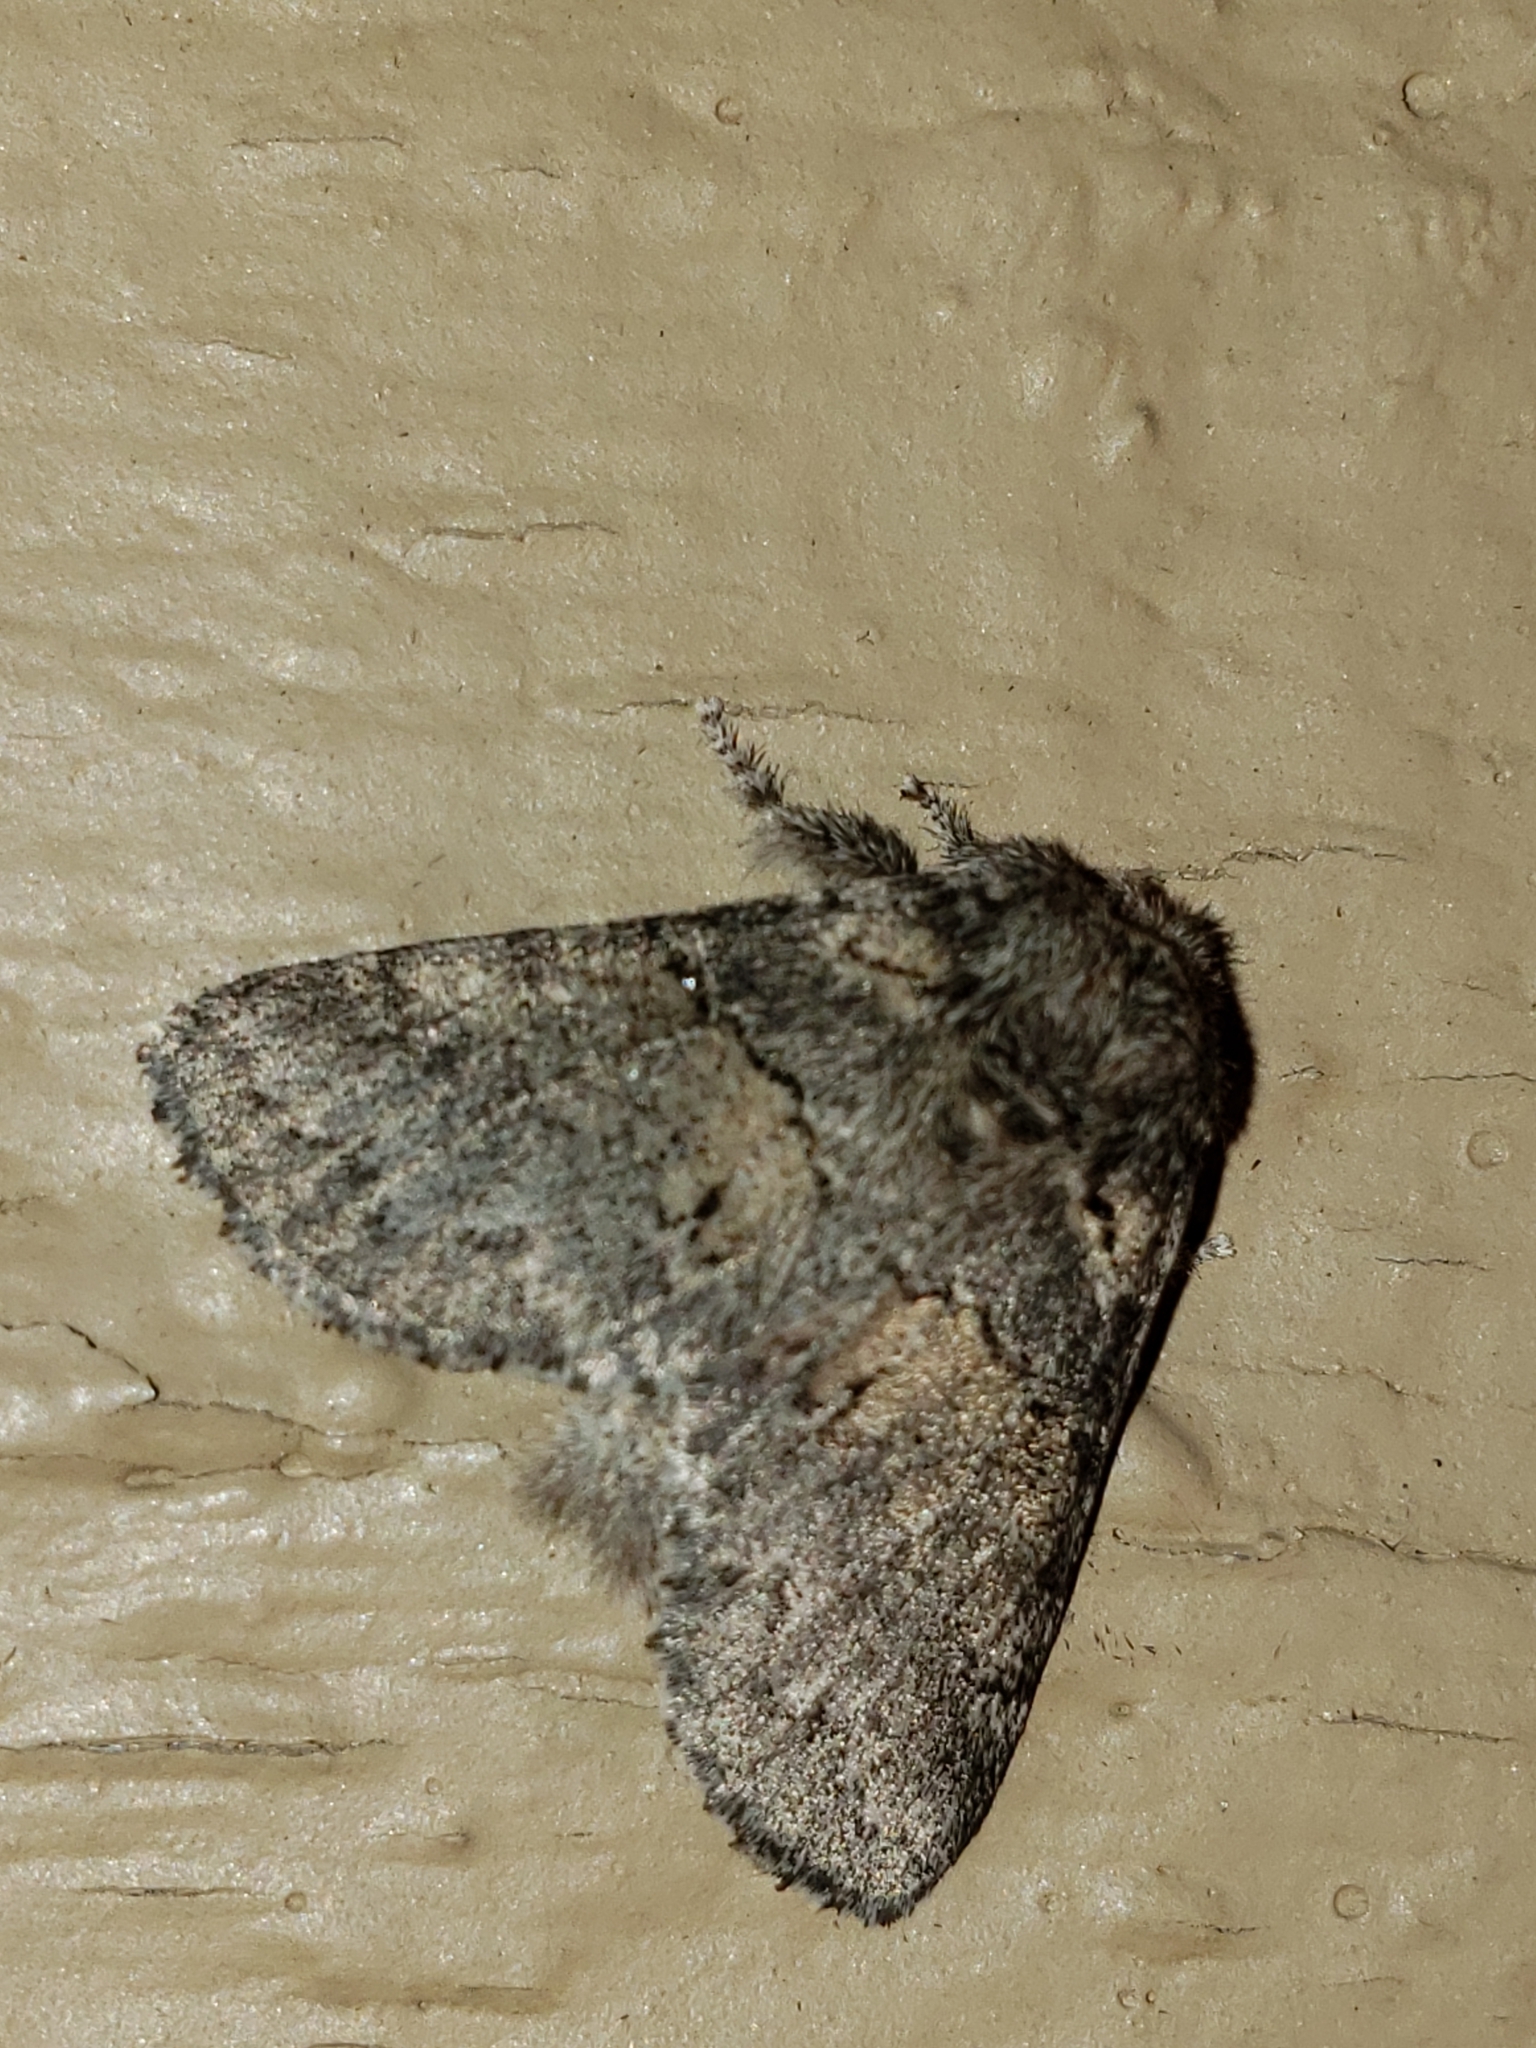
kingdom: Animalia
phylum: Arthropoda
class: Insecta
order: Lepidoptera
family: Notodontidae
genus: Gluphisia
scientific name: Gluphisia septentrionis
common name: Common gluphisia
